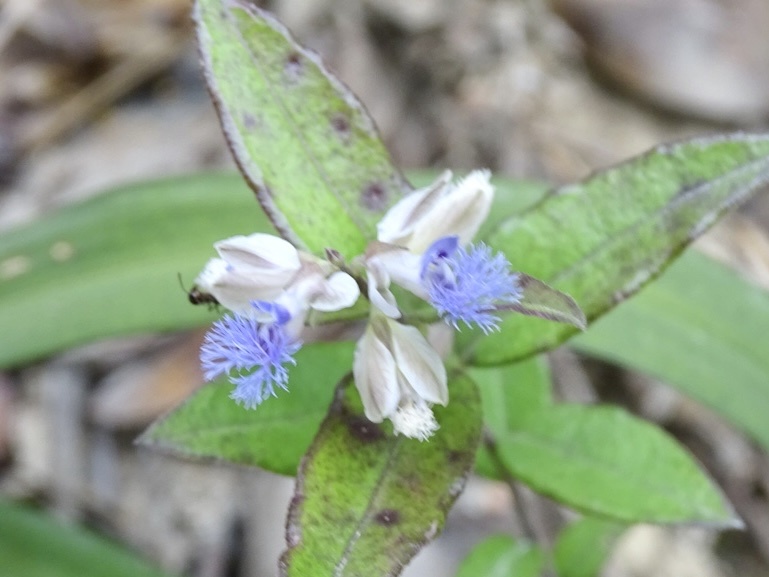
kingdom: Plantae
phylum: Tracheophyta
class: Magnoliopsida
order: Fabales
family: Polygalaceae
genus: Polygala
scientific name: Polygala hongkongensis
